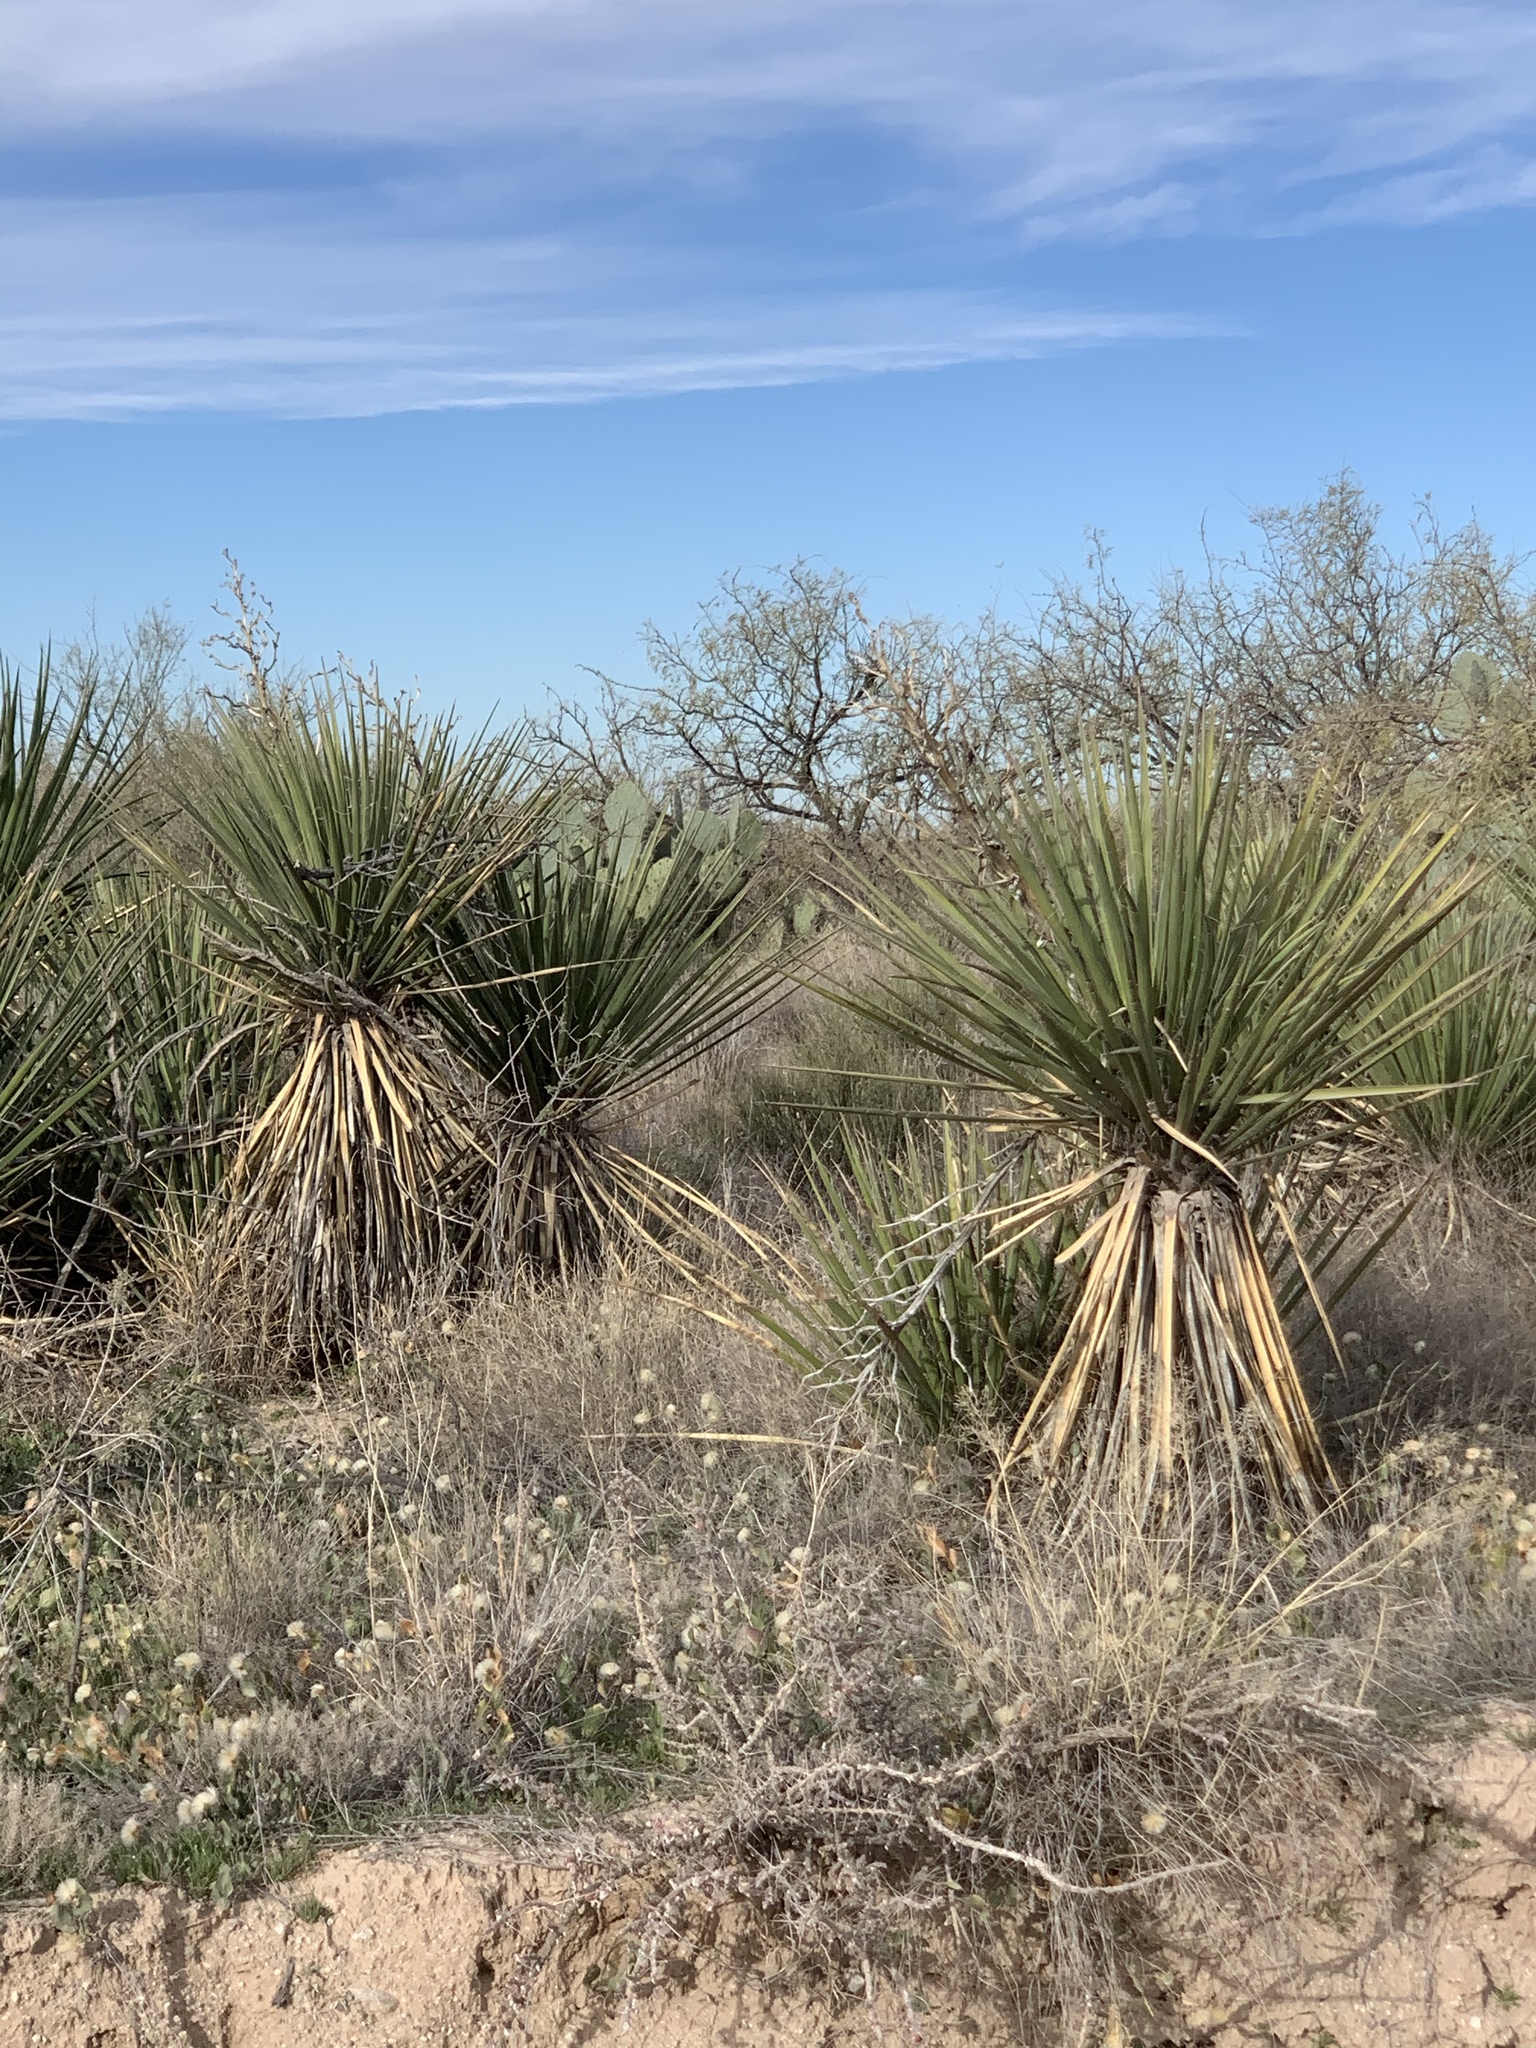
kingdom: Plantae
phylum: Tracheophyta
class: Liliopsida
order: Asparagales
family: Asparagaceae
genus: Yucca
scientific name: Yucca baccata
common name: Banana yucca
